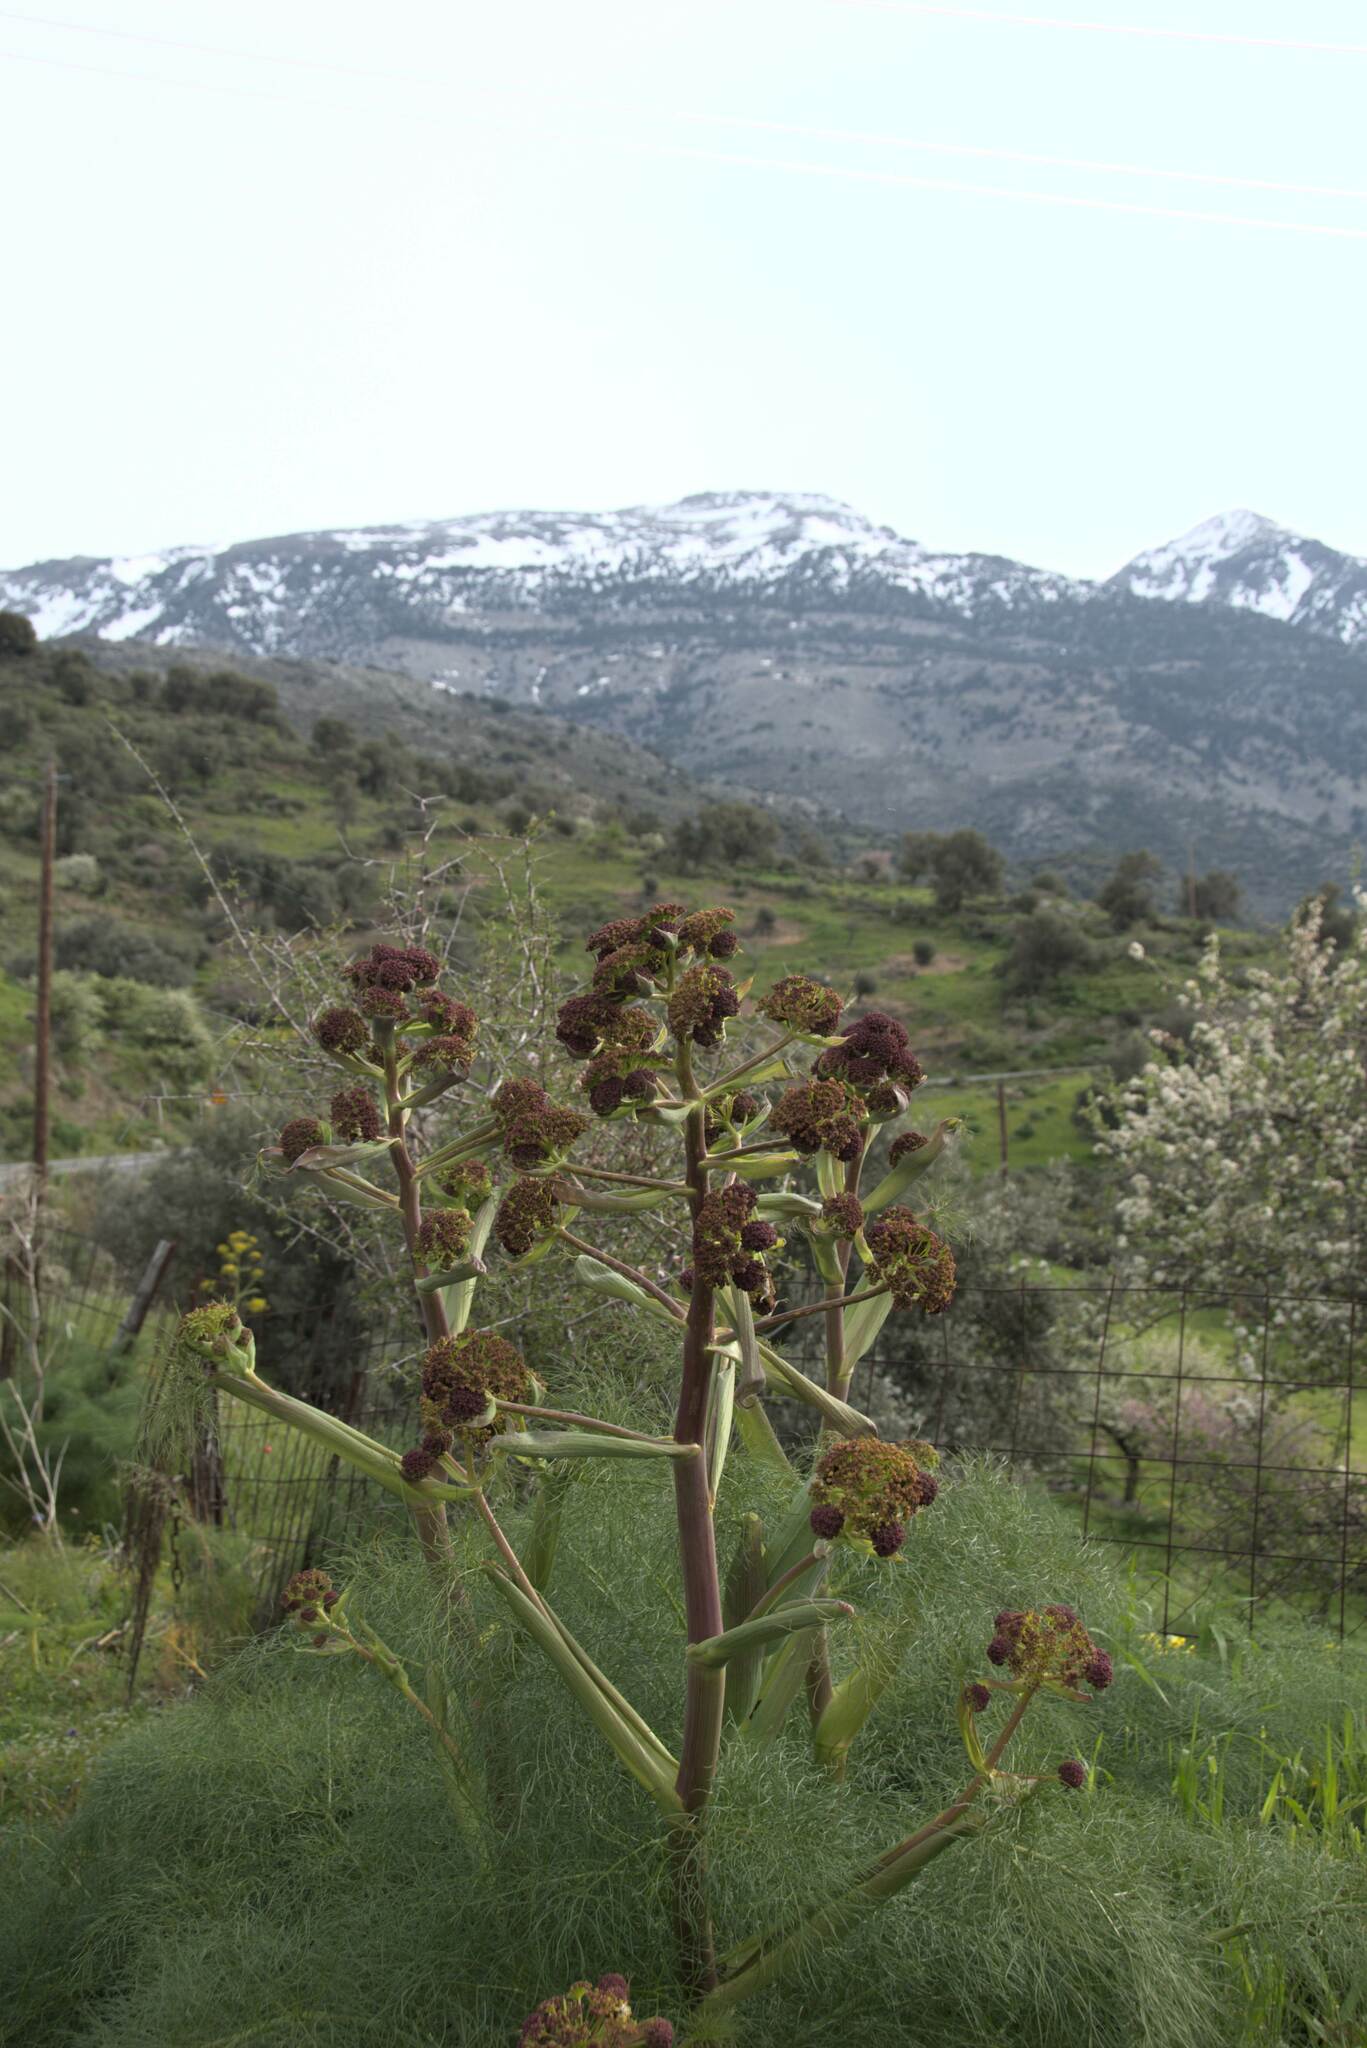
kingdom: Plantae
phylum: Tracheophyta
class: Magnoliopsida
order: Apiales
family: Apiaceae
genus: Ferula
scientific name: Ferula communis
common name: Giant fennel
